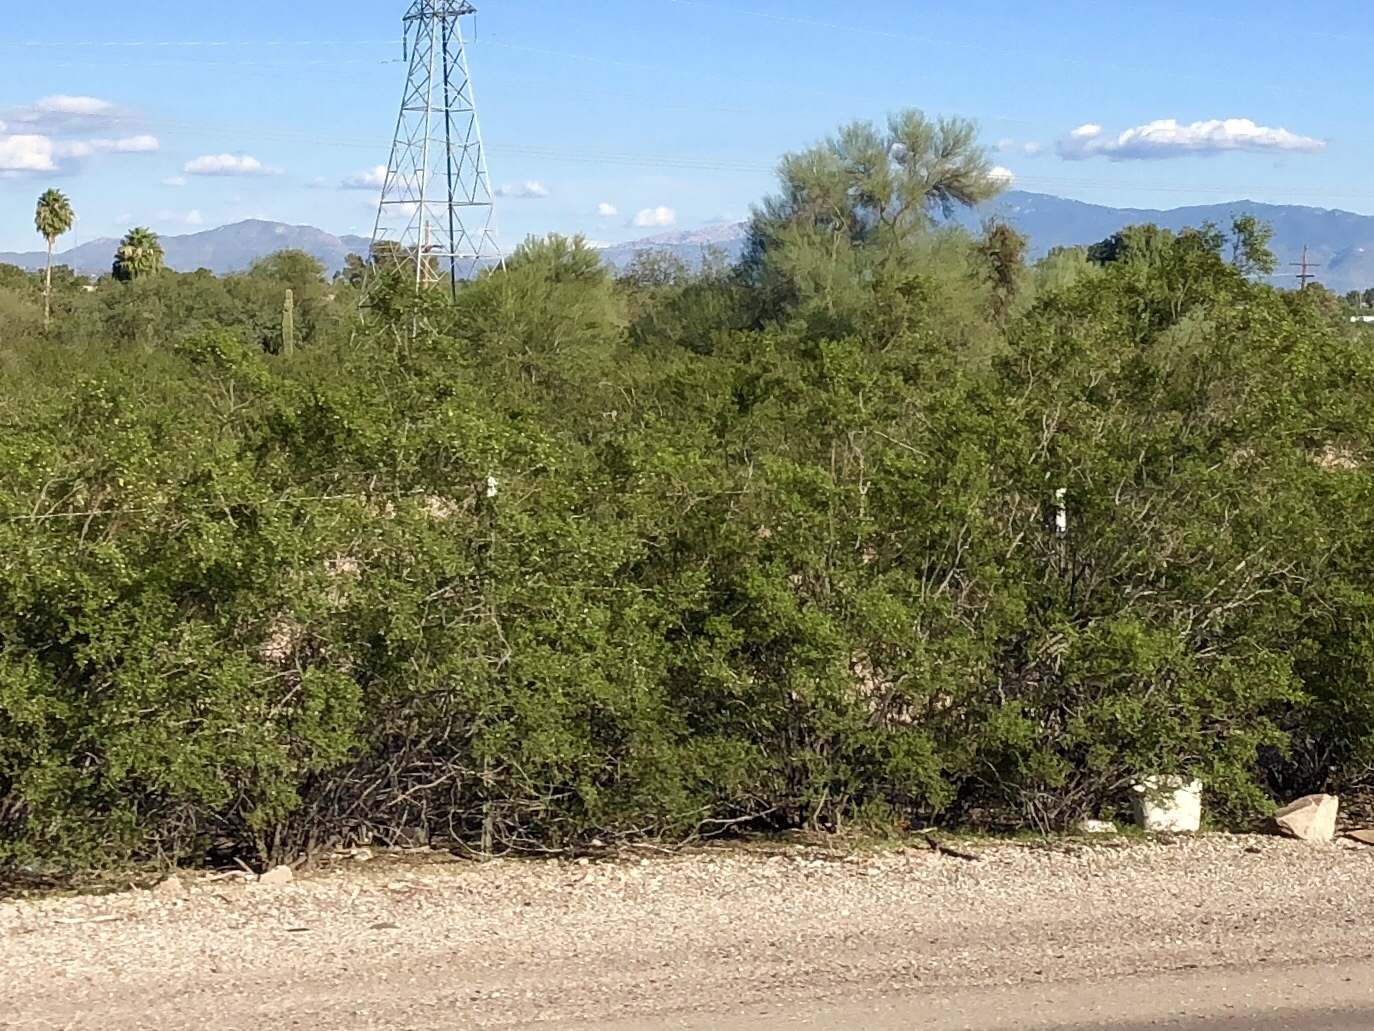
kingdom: Plantae
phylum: Tracheophyta
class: Magnoliopsida
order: Zygophyllales
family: Zygophyllaceae
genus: Larrea
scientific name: Larrea tridentata
